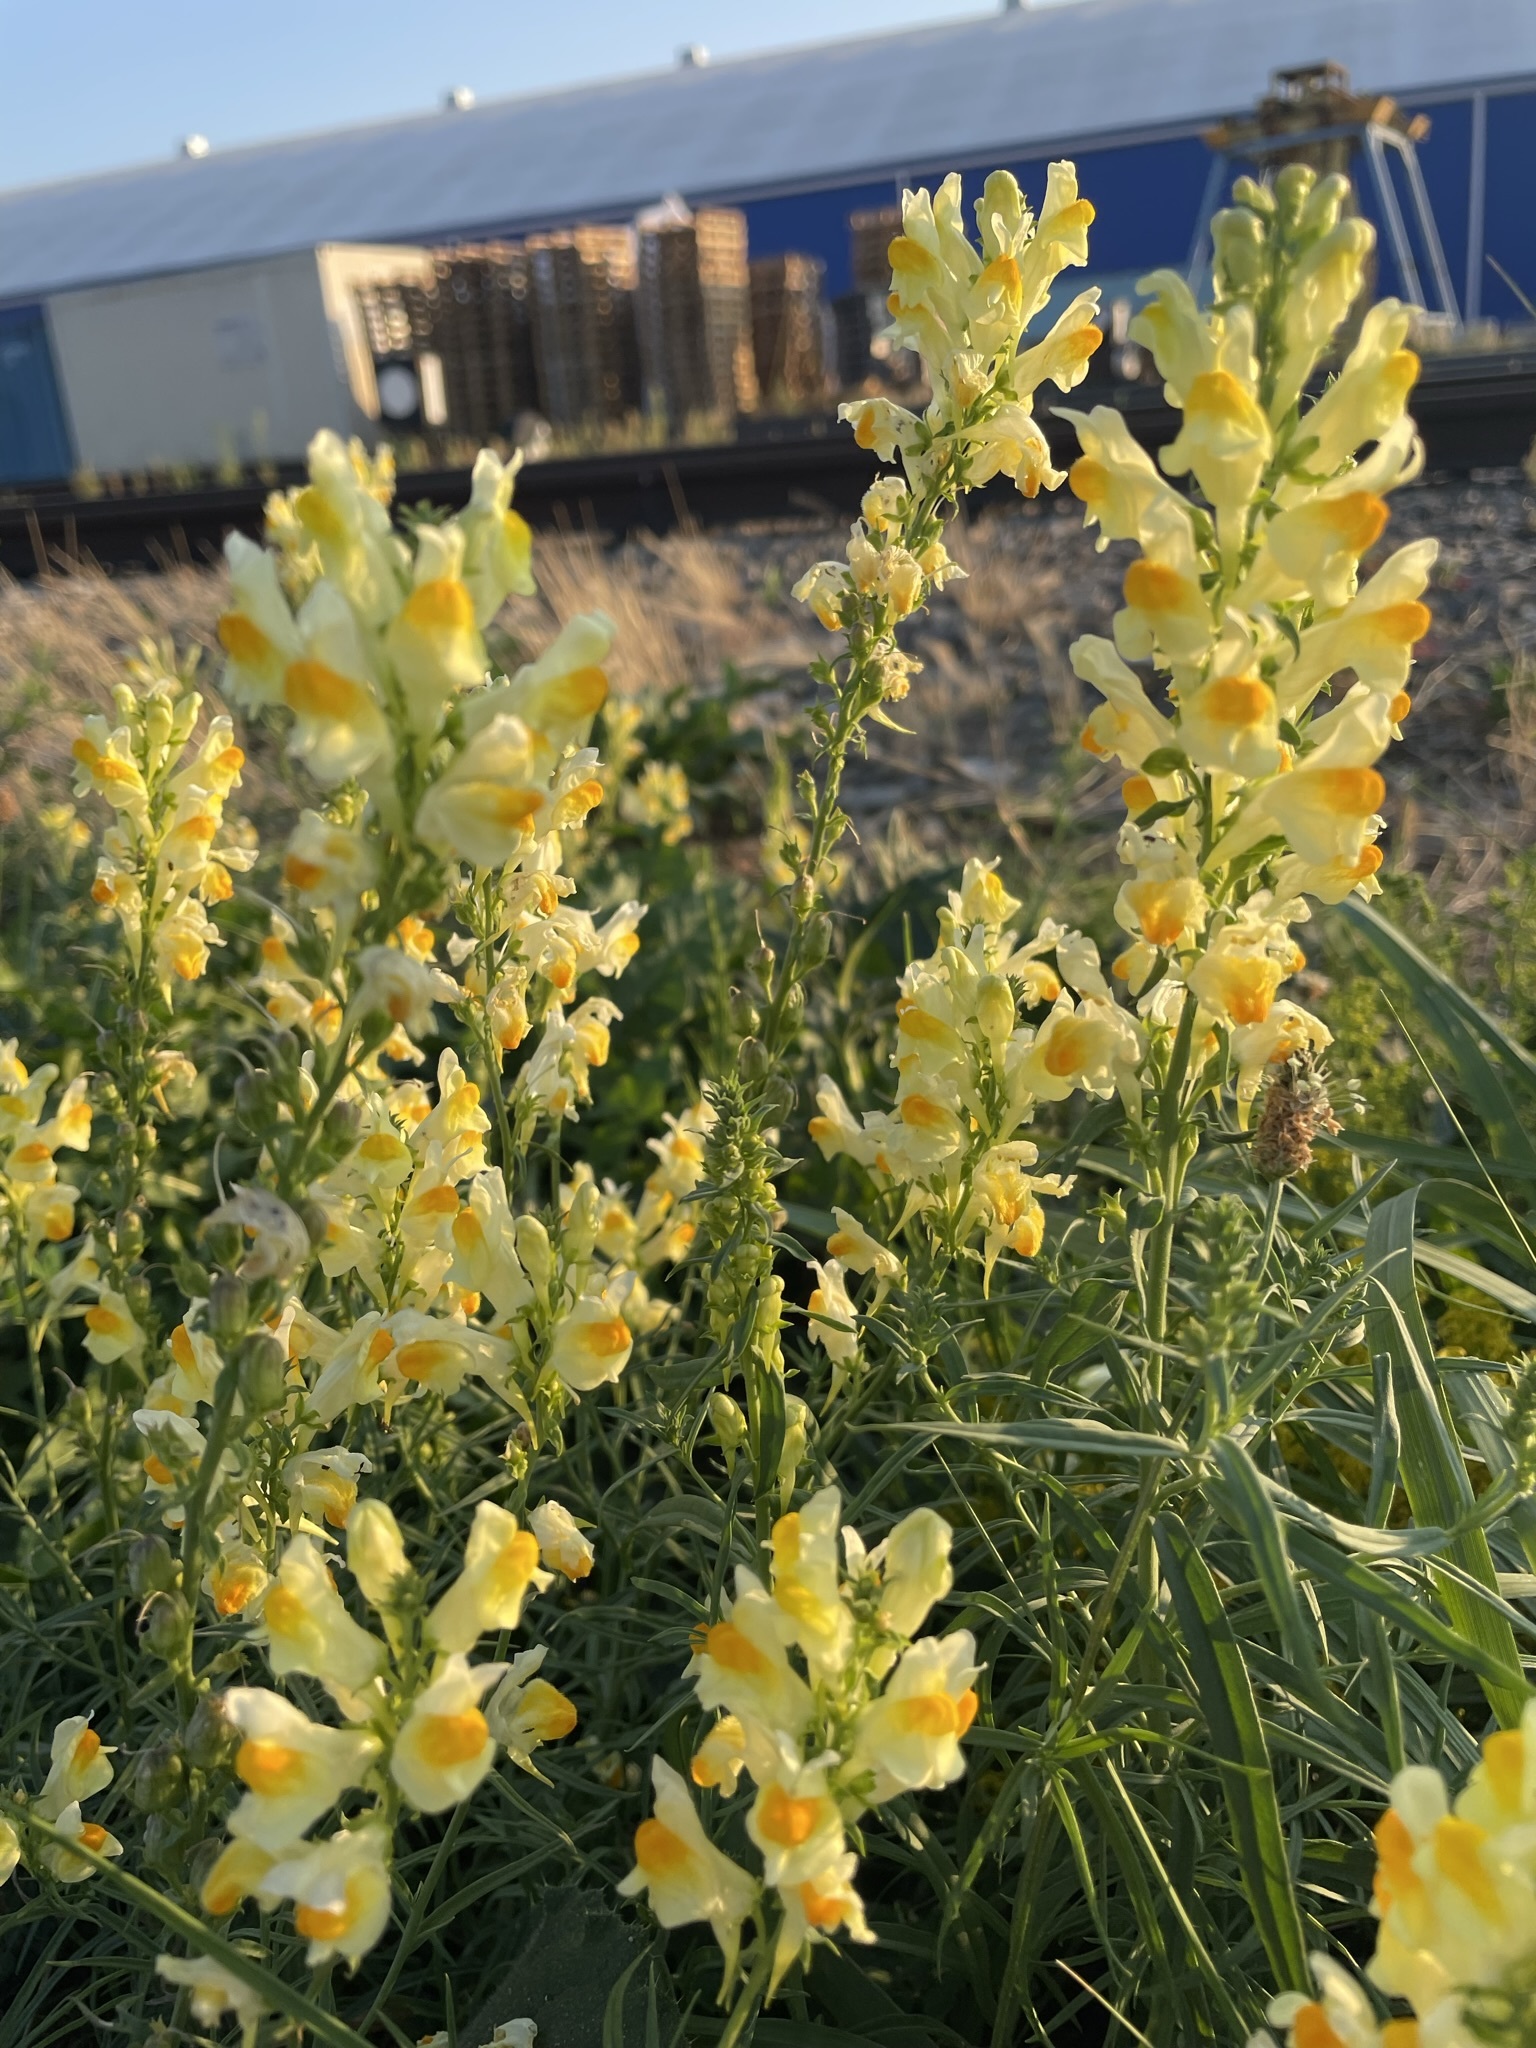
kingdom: Plantae
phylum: Tracheophyta
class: Magnoliopsida
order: Lamiales
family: Plantaginaceae
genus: Linaria
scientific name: Linaria vulgaris
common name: Butter and eggs
